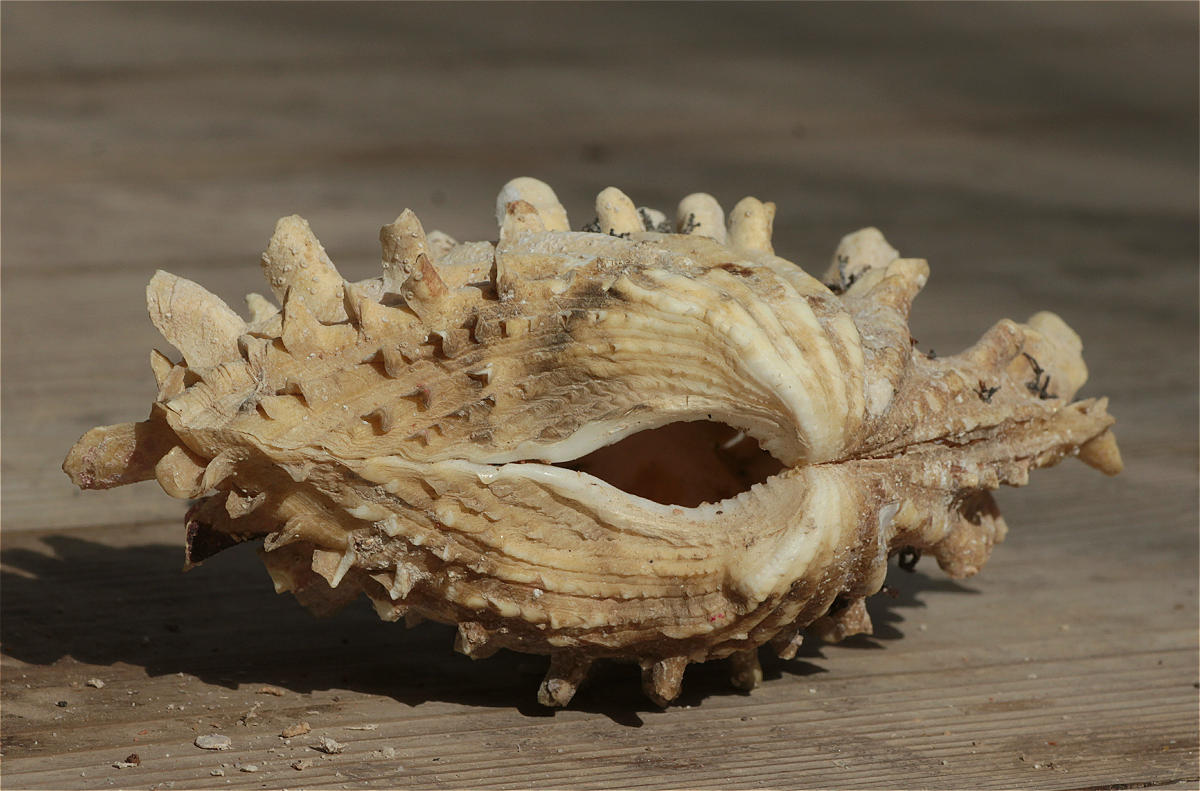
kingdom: Animalia
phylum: Mollusca
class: Bivalvia
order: Cardiida
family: Cardiidae
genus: Tridacna
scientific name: Tridacna squamosina
